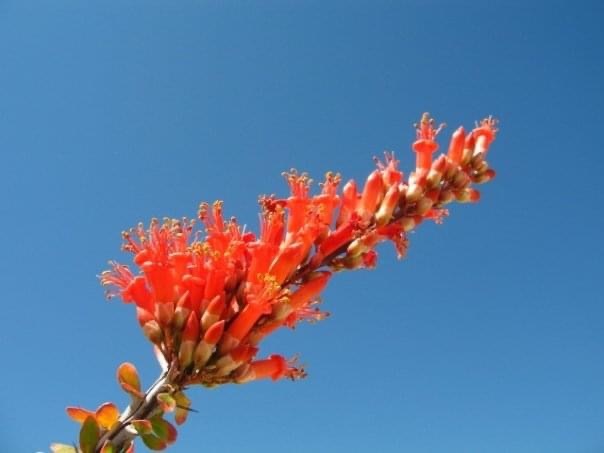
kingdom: Plantae
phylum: Tracheophyta
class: Magnoliopsida
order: Ericales
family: Fouquieriaceae
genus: Fouquieria
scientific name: Fouquieria splendens
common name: Vine-cactus
